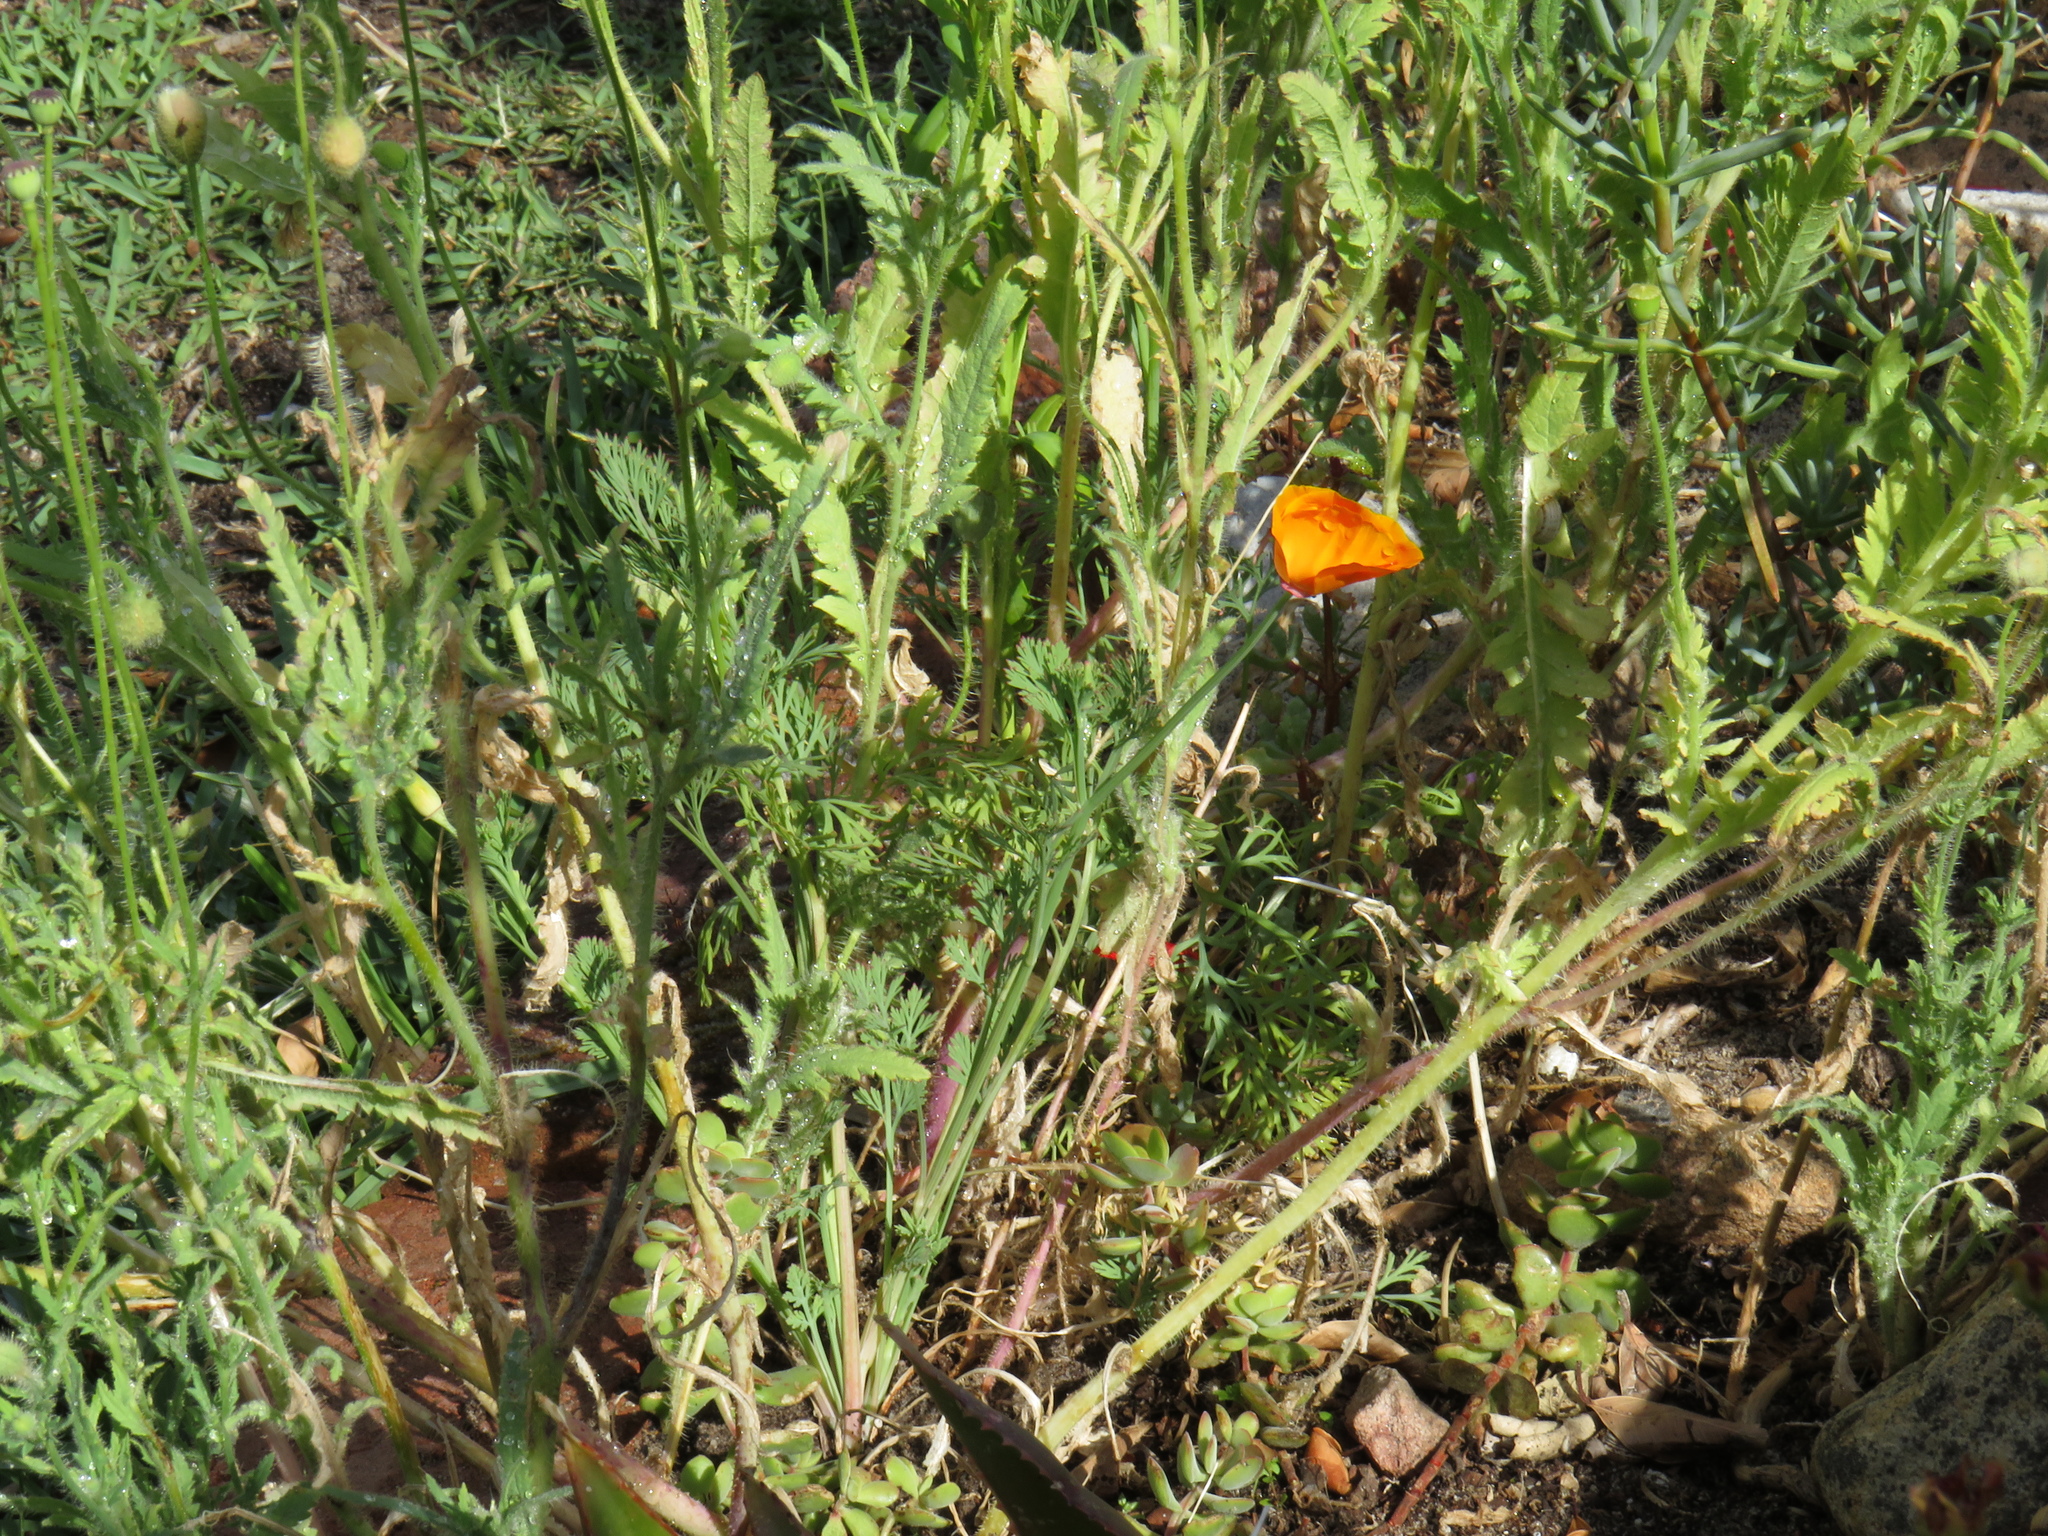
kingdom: Plantae
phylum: Tracheophyta
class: Magnoliopsida
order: Ranunculales
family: Papaveraceae
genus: Eschscholzia
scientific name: Eschscholzia californica
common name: California poppy
